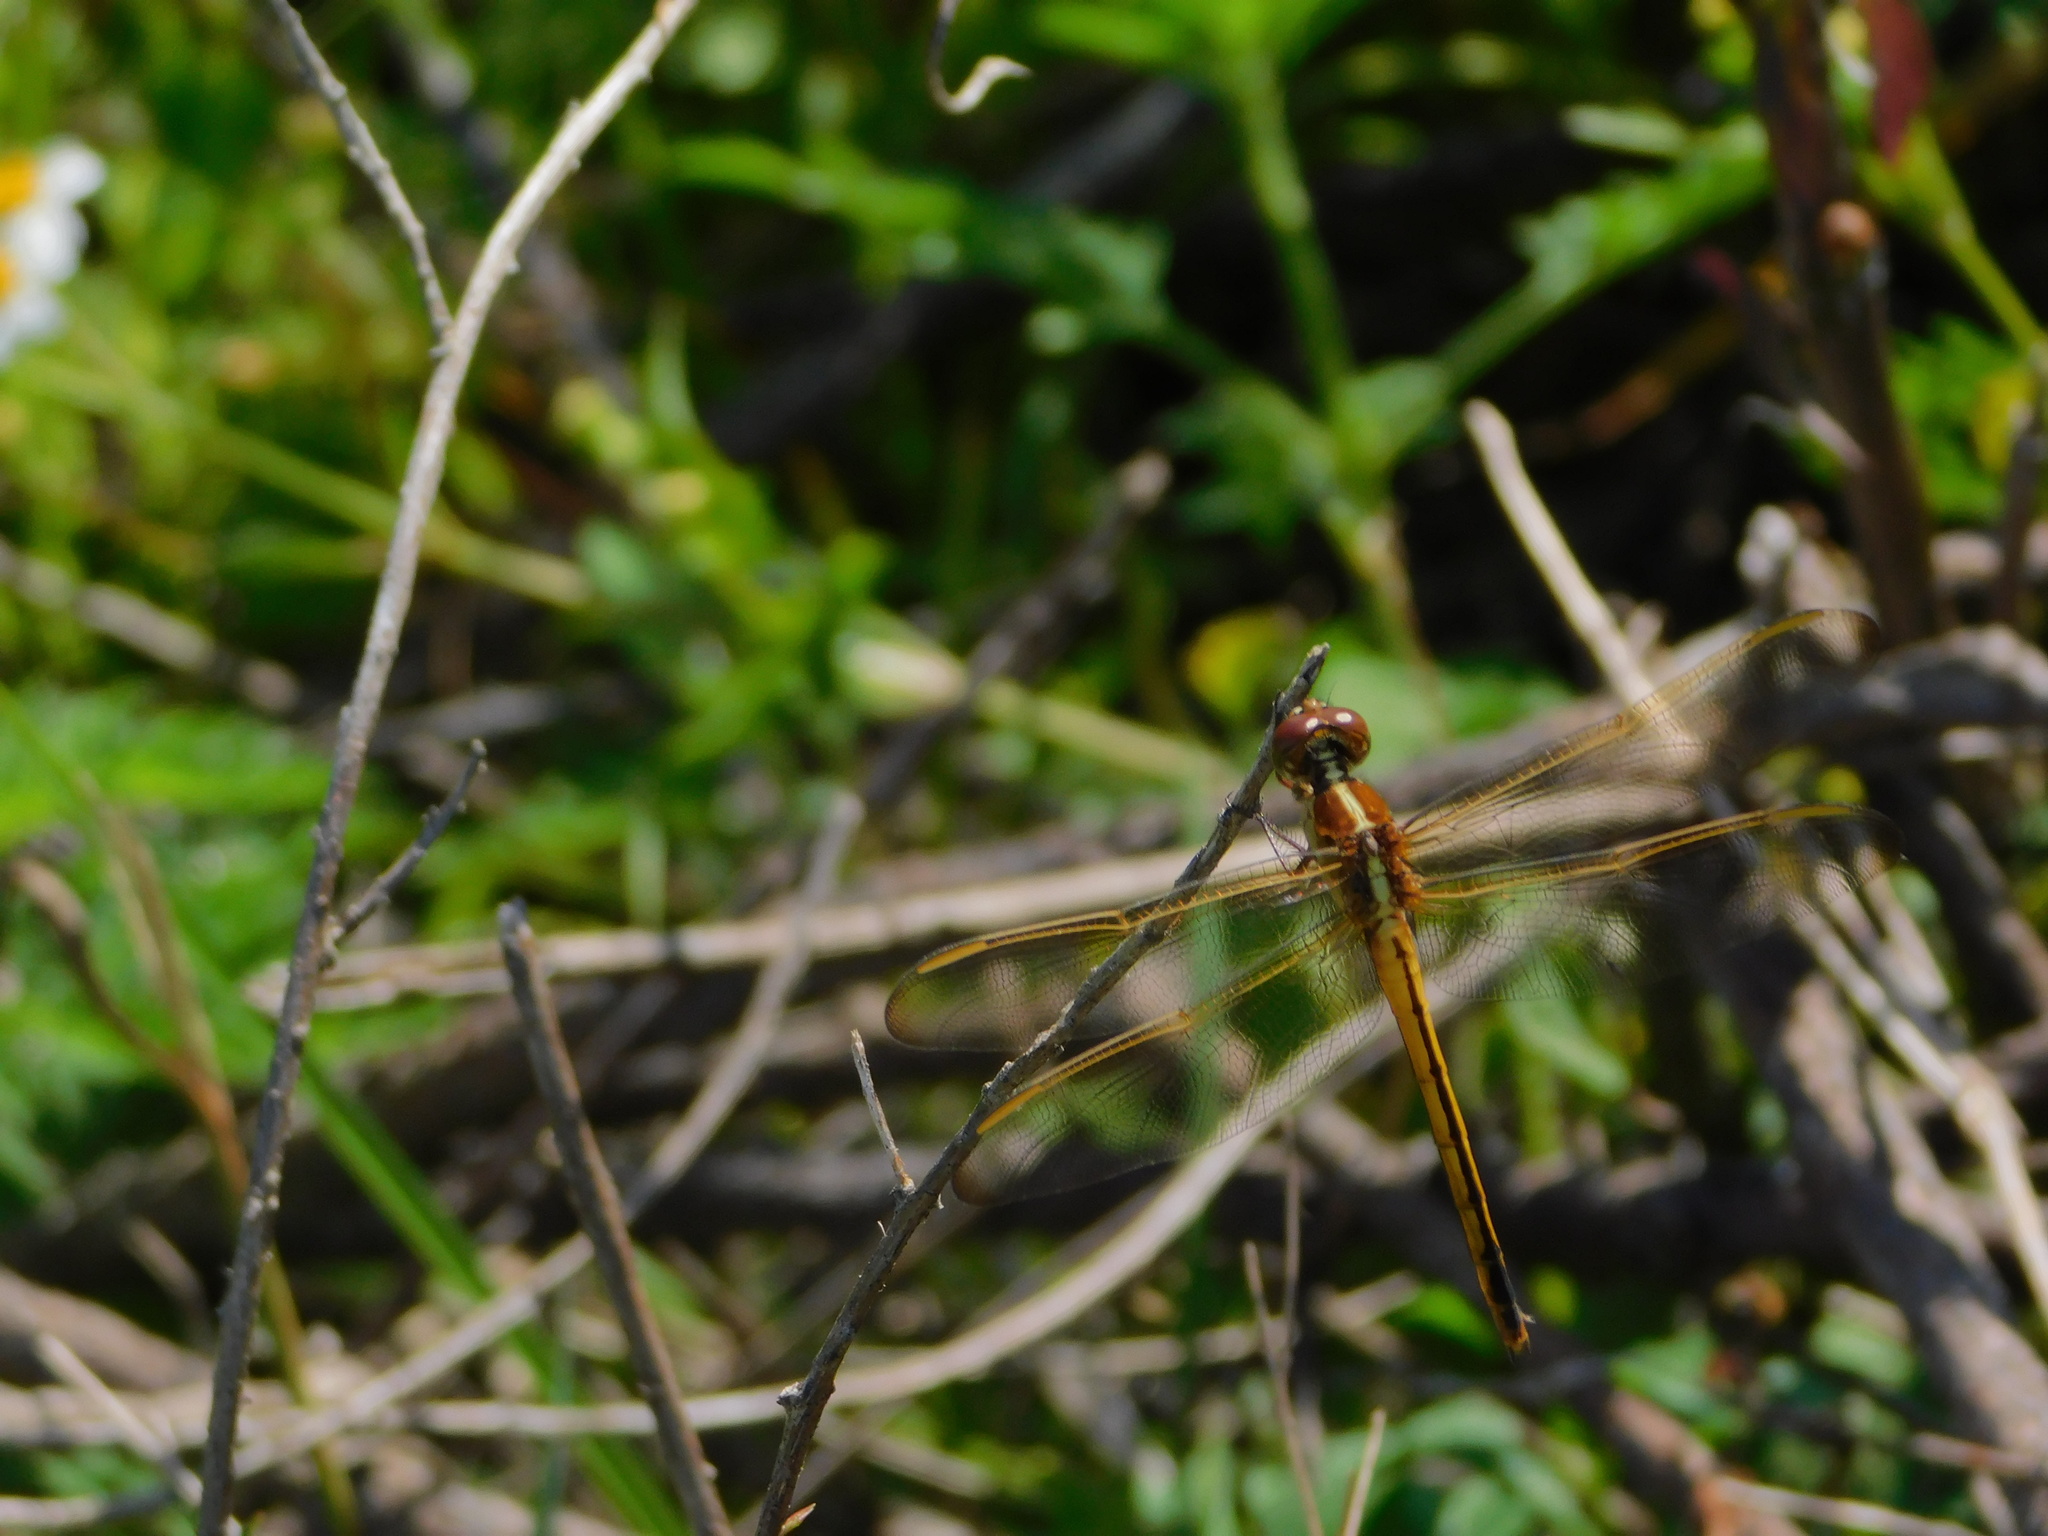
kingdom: Animalia
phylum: Arthropoda
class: Insecta
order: Odonata
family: Libellulidae
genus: Libellula
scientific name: Libellula needhami
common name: Needham's skimmer
